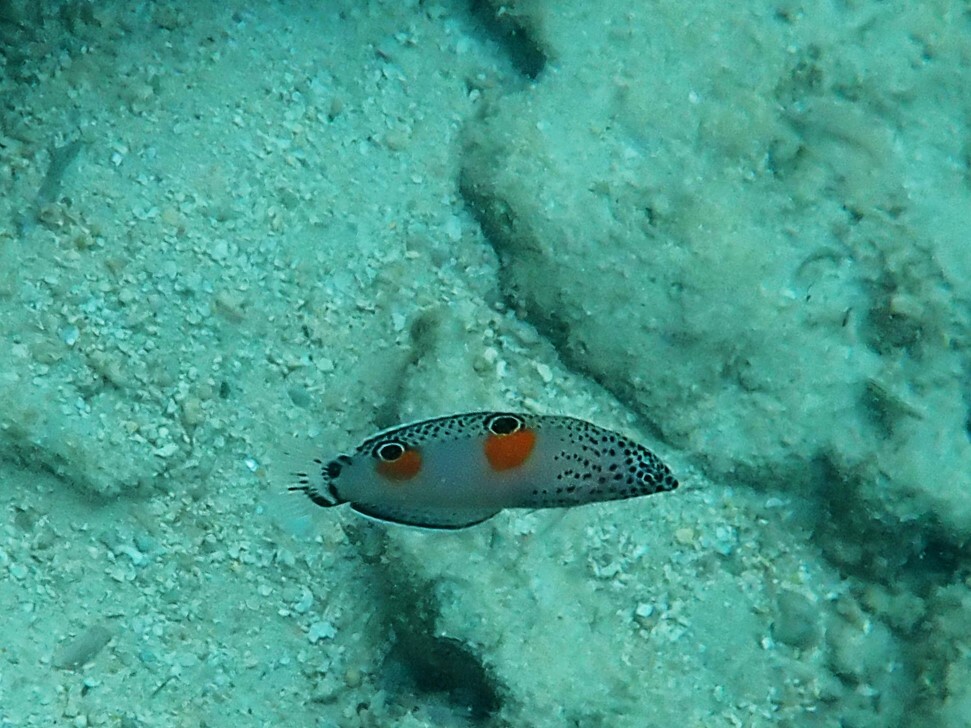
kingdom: Animalia
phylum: Chordata
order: Perciformes
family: Labridae
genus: Coris
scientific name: Coris aygula
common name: Clown coris
